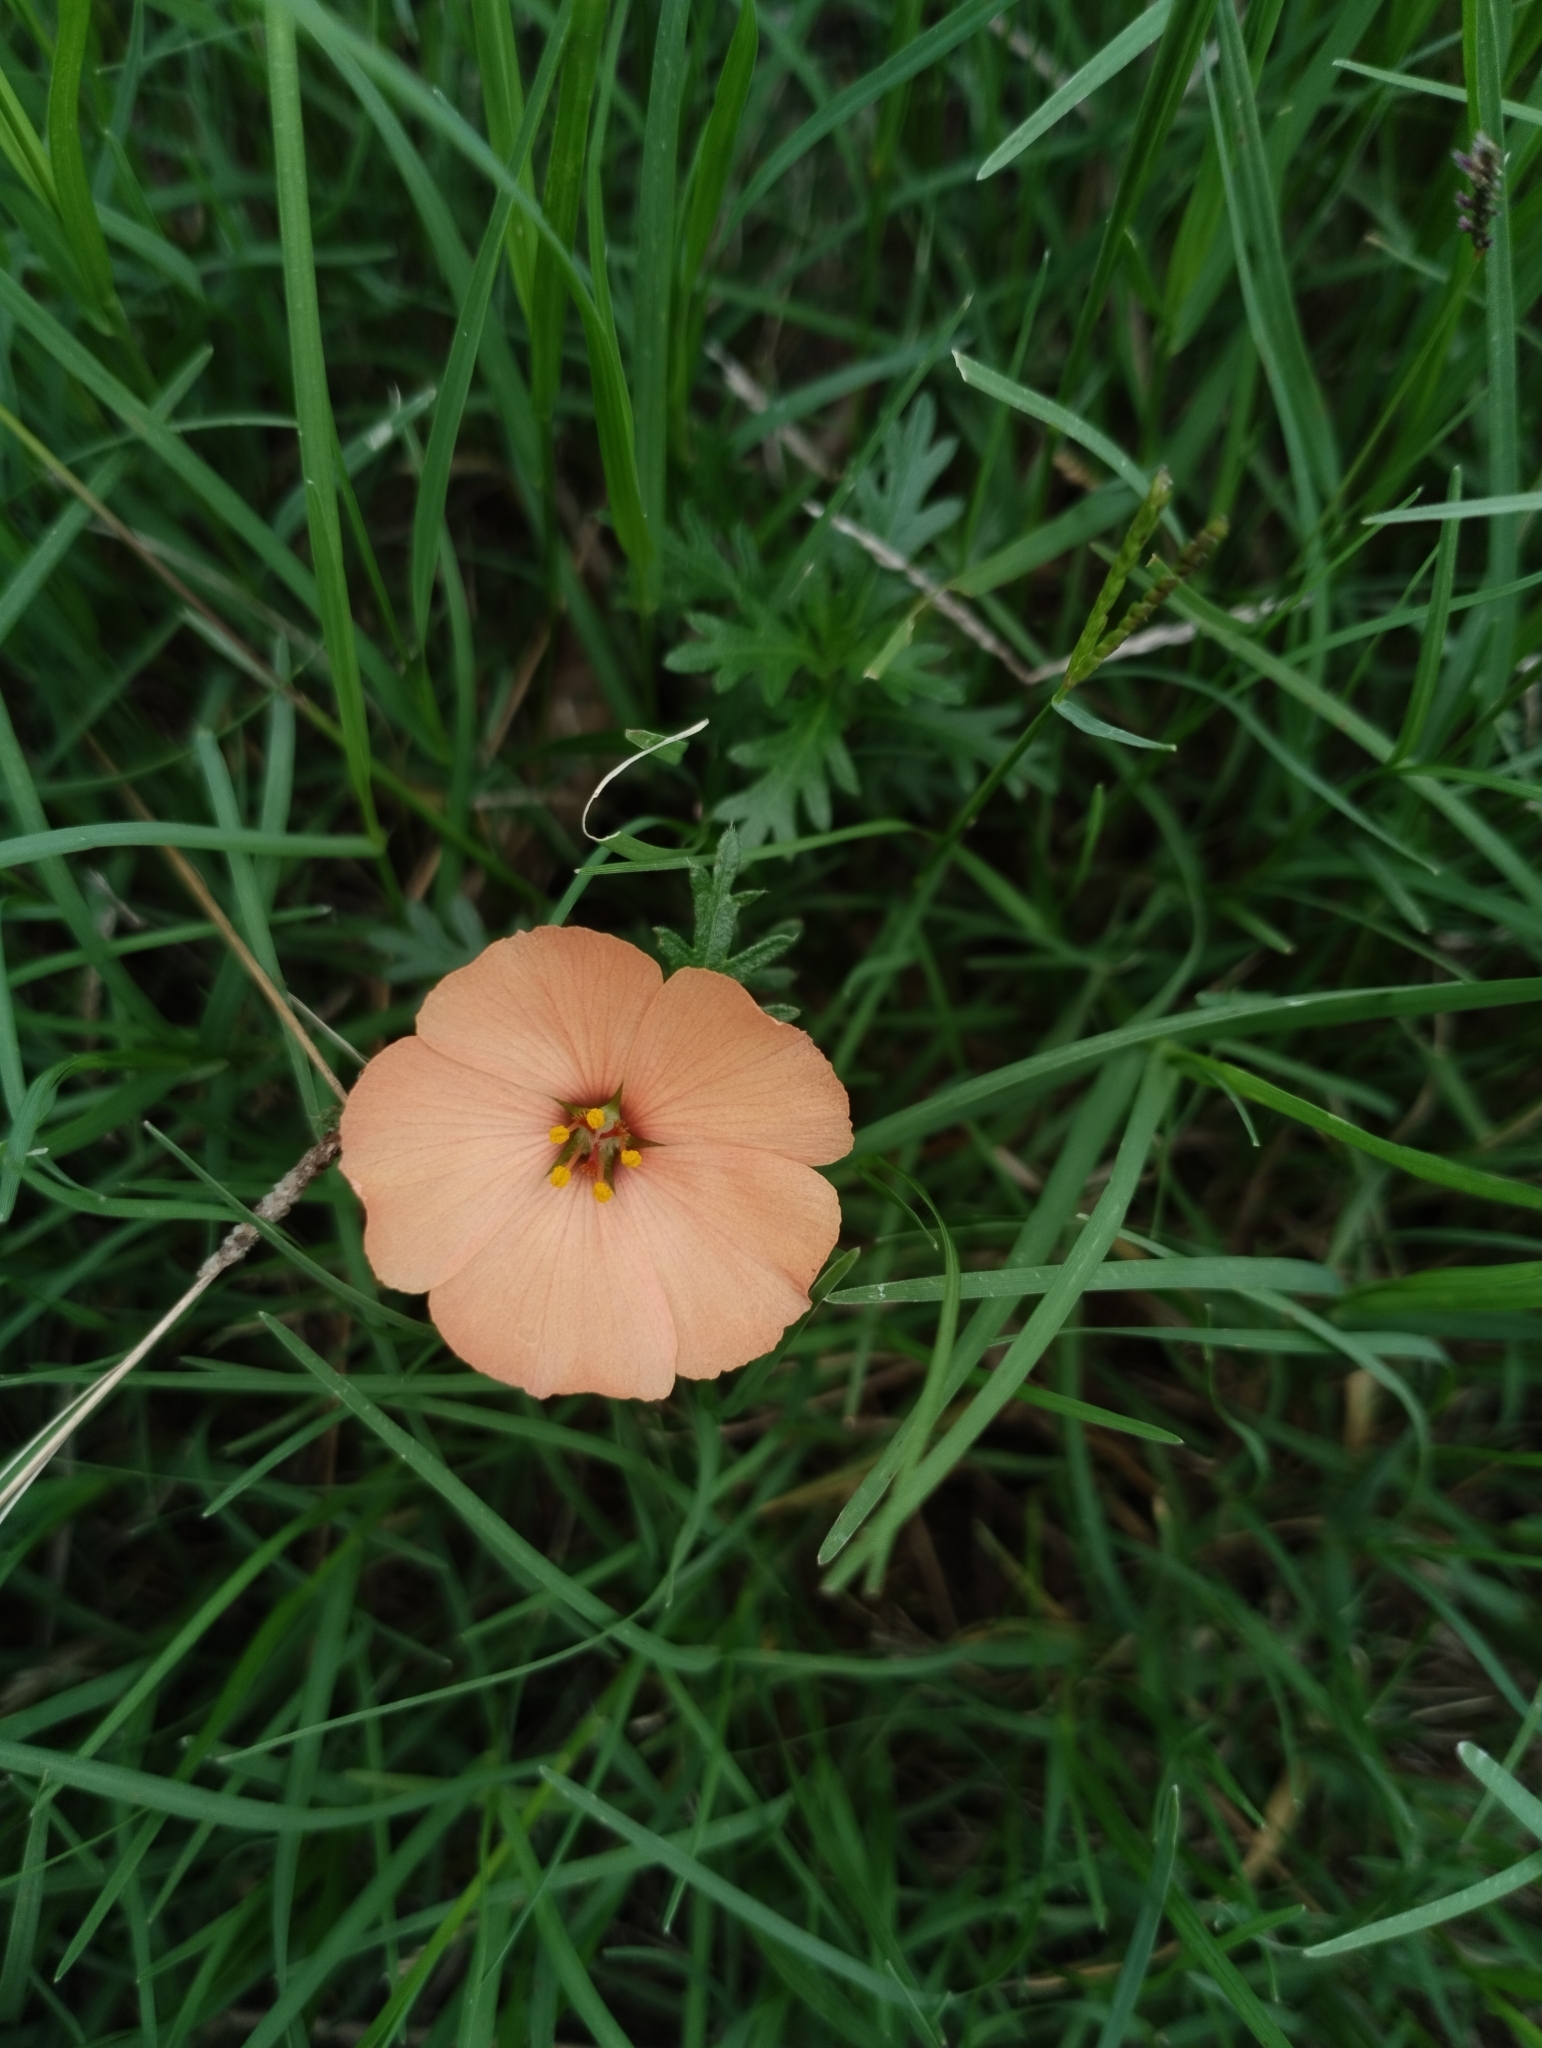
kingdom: Plantae
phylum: Tracheophyta
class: Magnoliopsida
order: Malpighiales
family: Turneraceae
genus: Turnera
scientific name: Turnera sidoides
